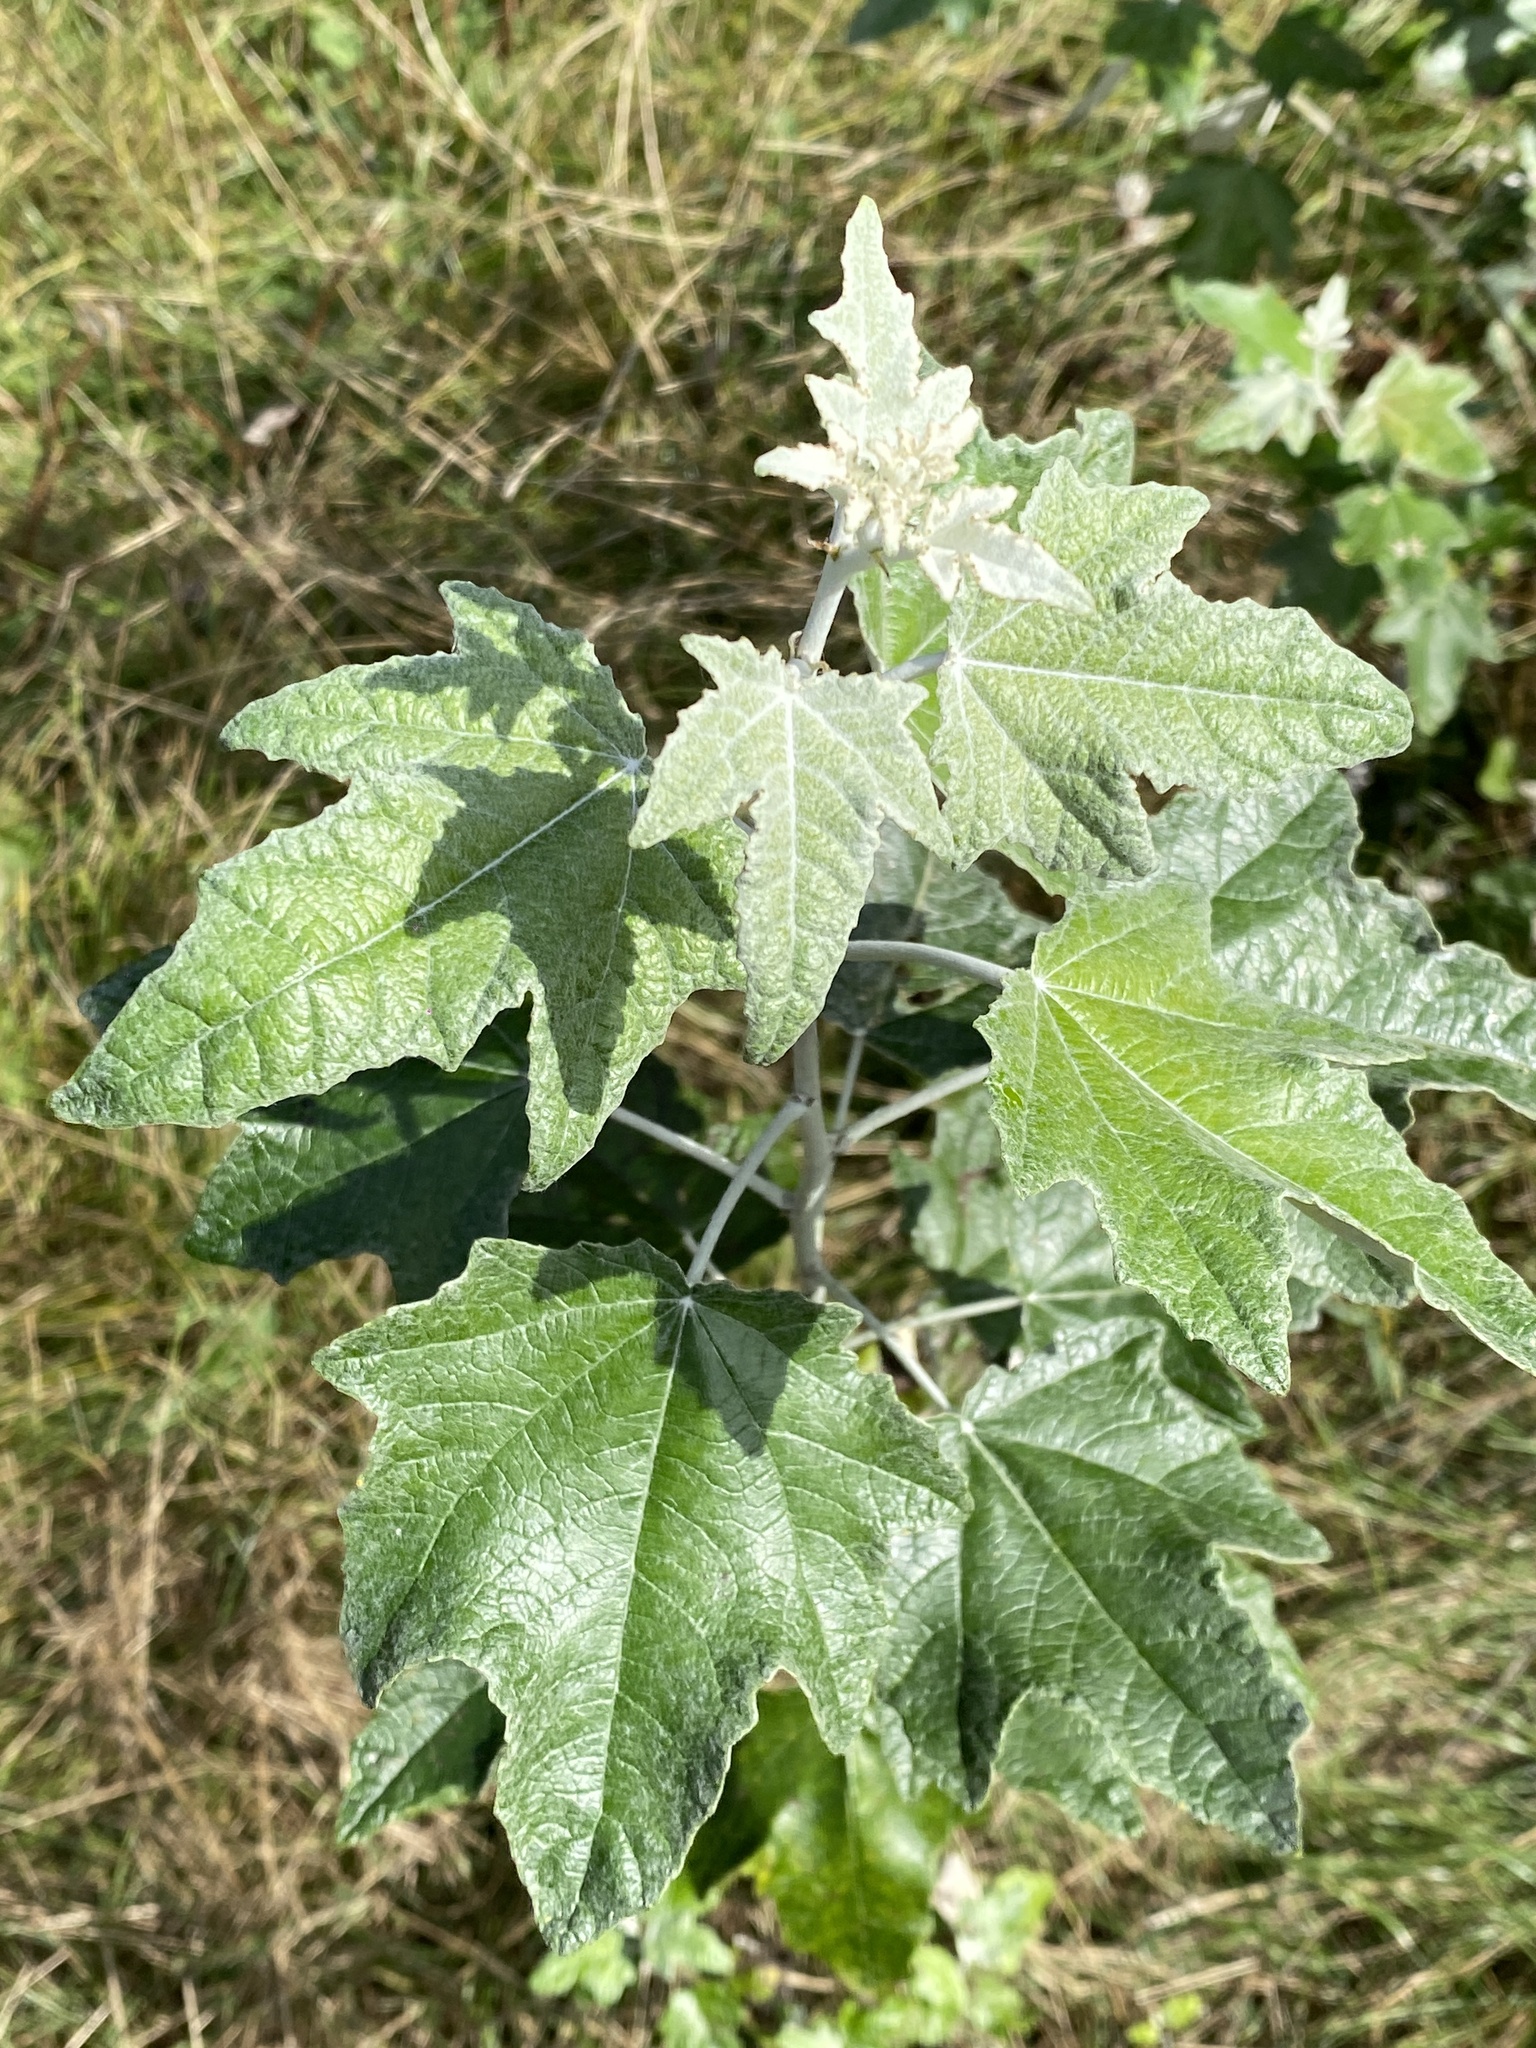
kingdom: Plantae
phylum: Tracheophyta
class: Magnoliopsida
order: Malpighiales
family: Salicaceae
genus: Populus
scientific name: Populus alba
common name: White poplar
